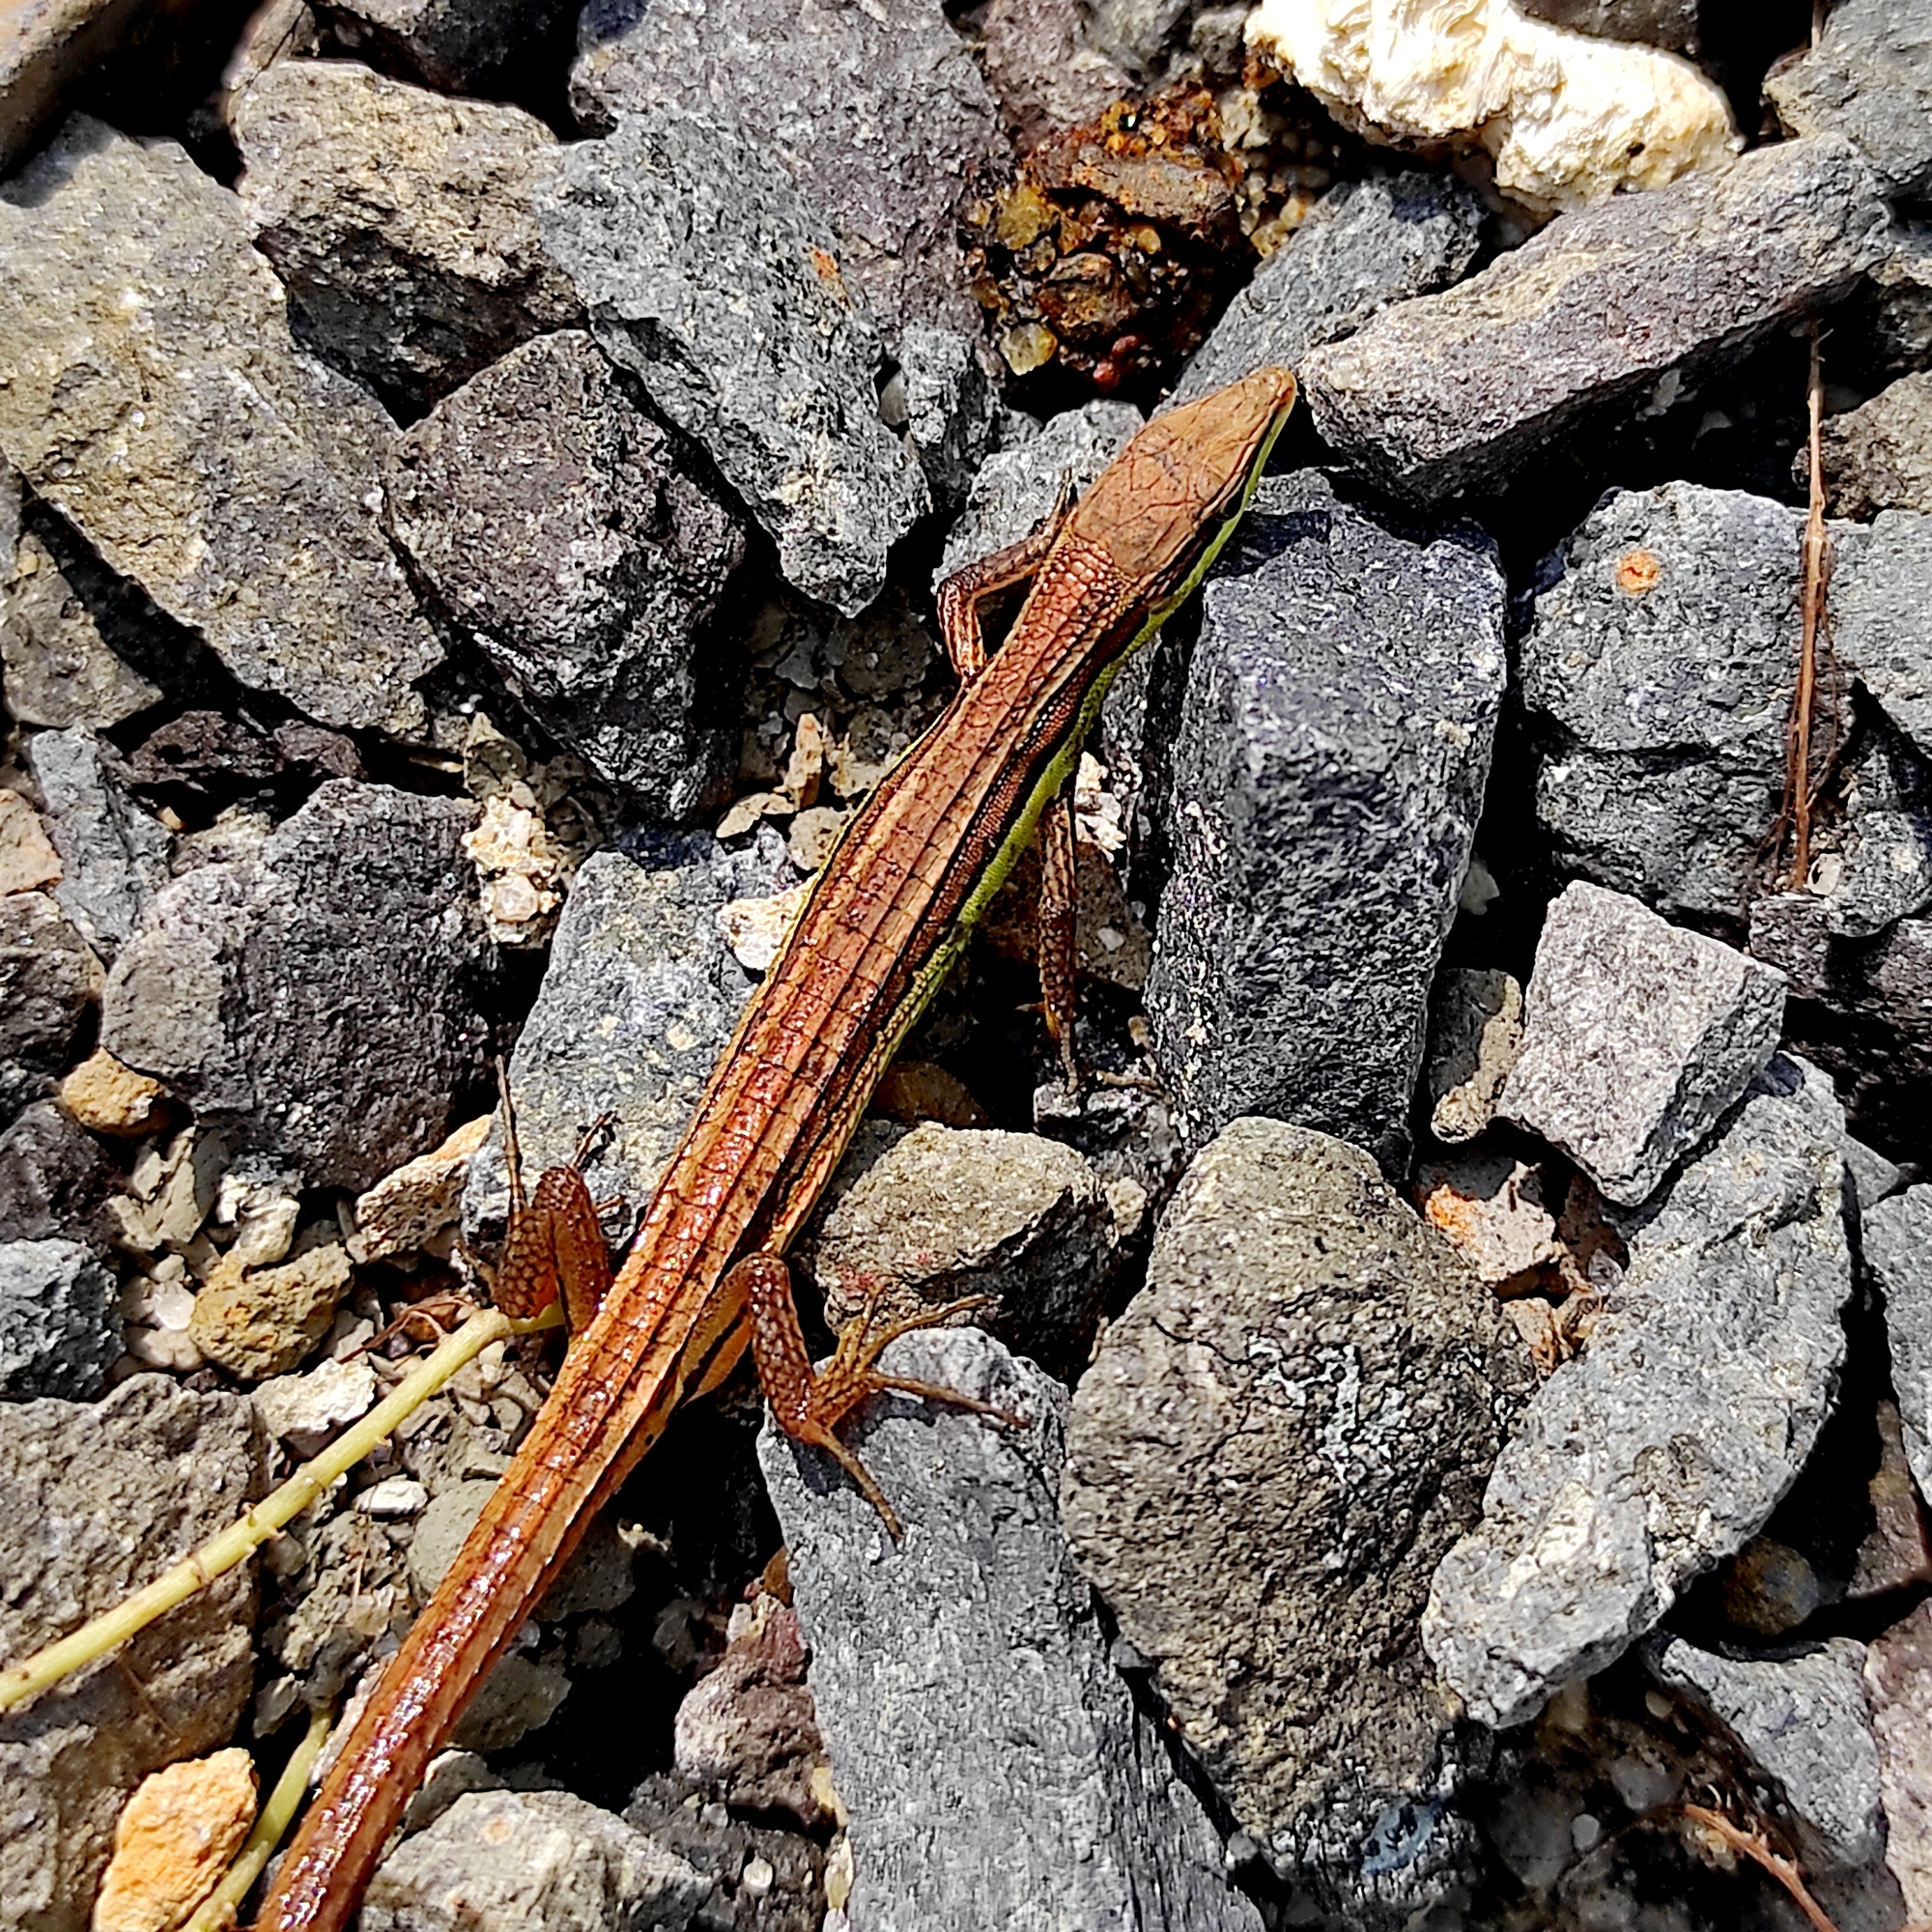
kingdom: Animalia
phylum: Chordata
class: Squamata
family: Lacertidae
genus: Takydromus
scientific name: Takydromus sexlineatus
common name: Asian grass lizard
